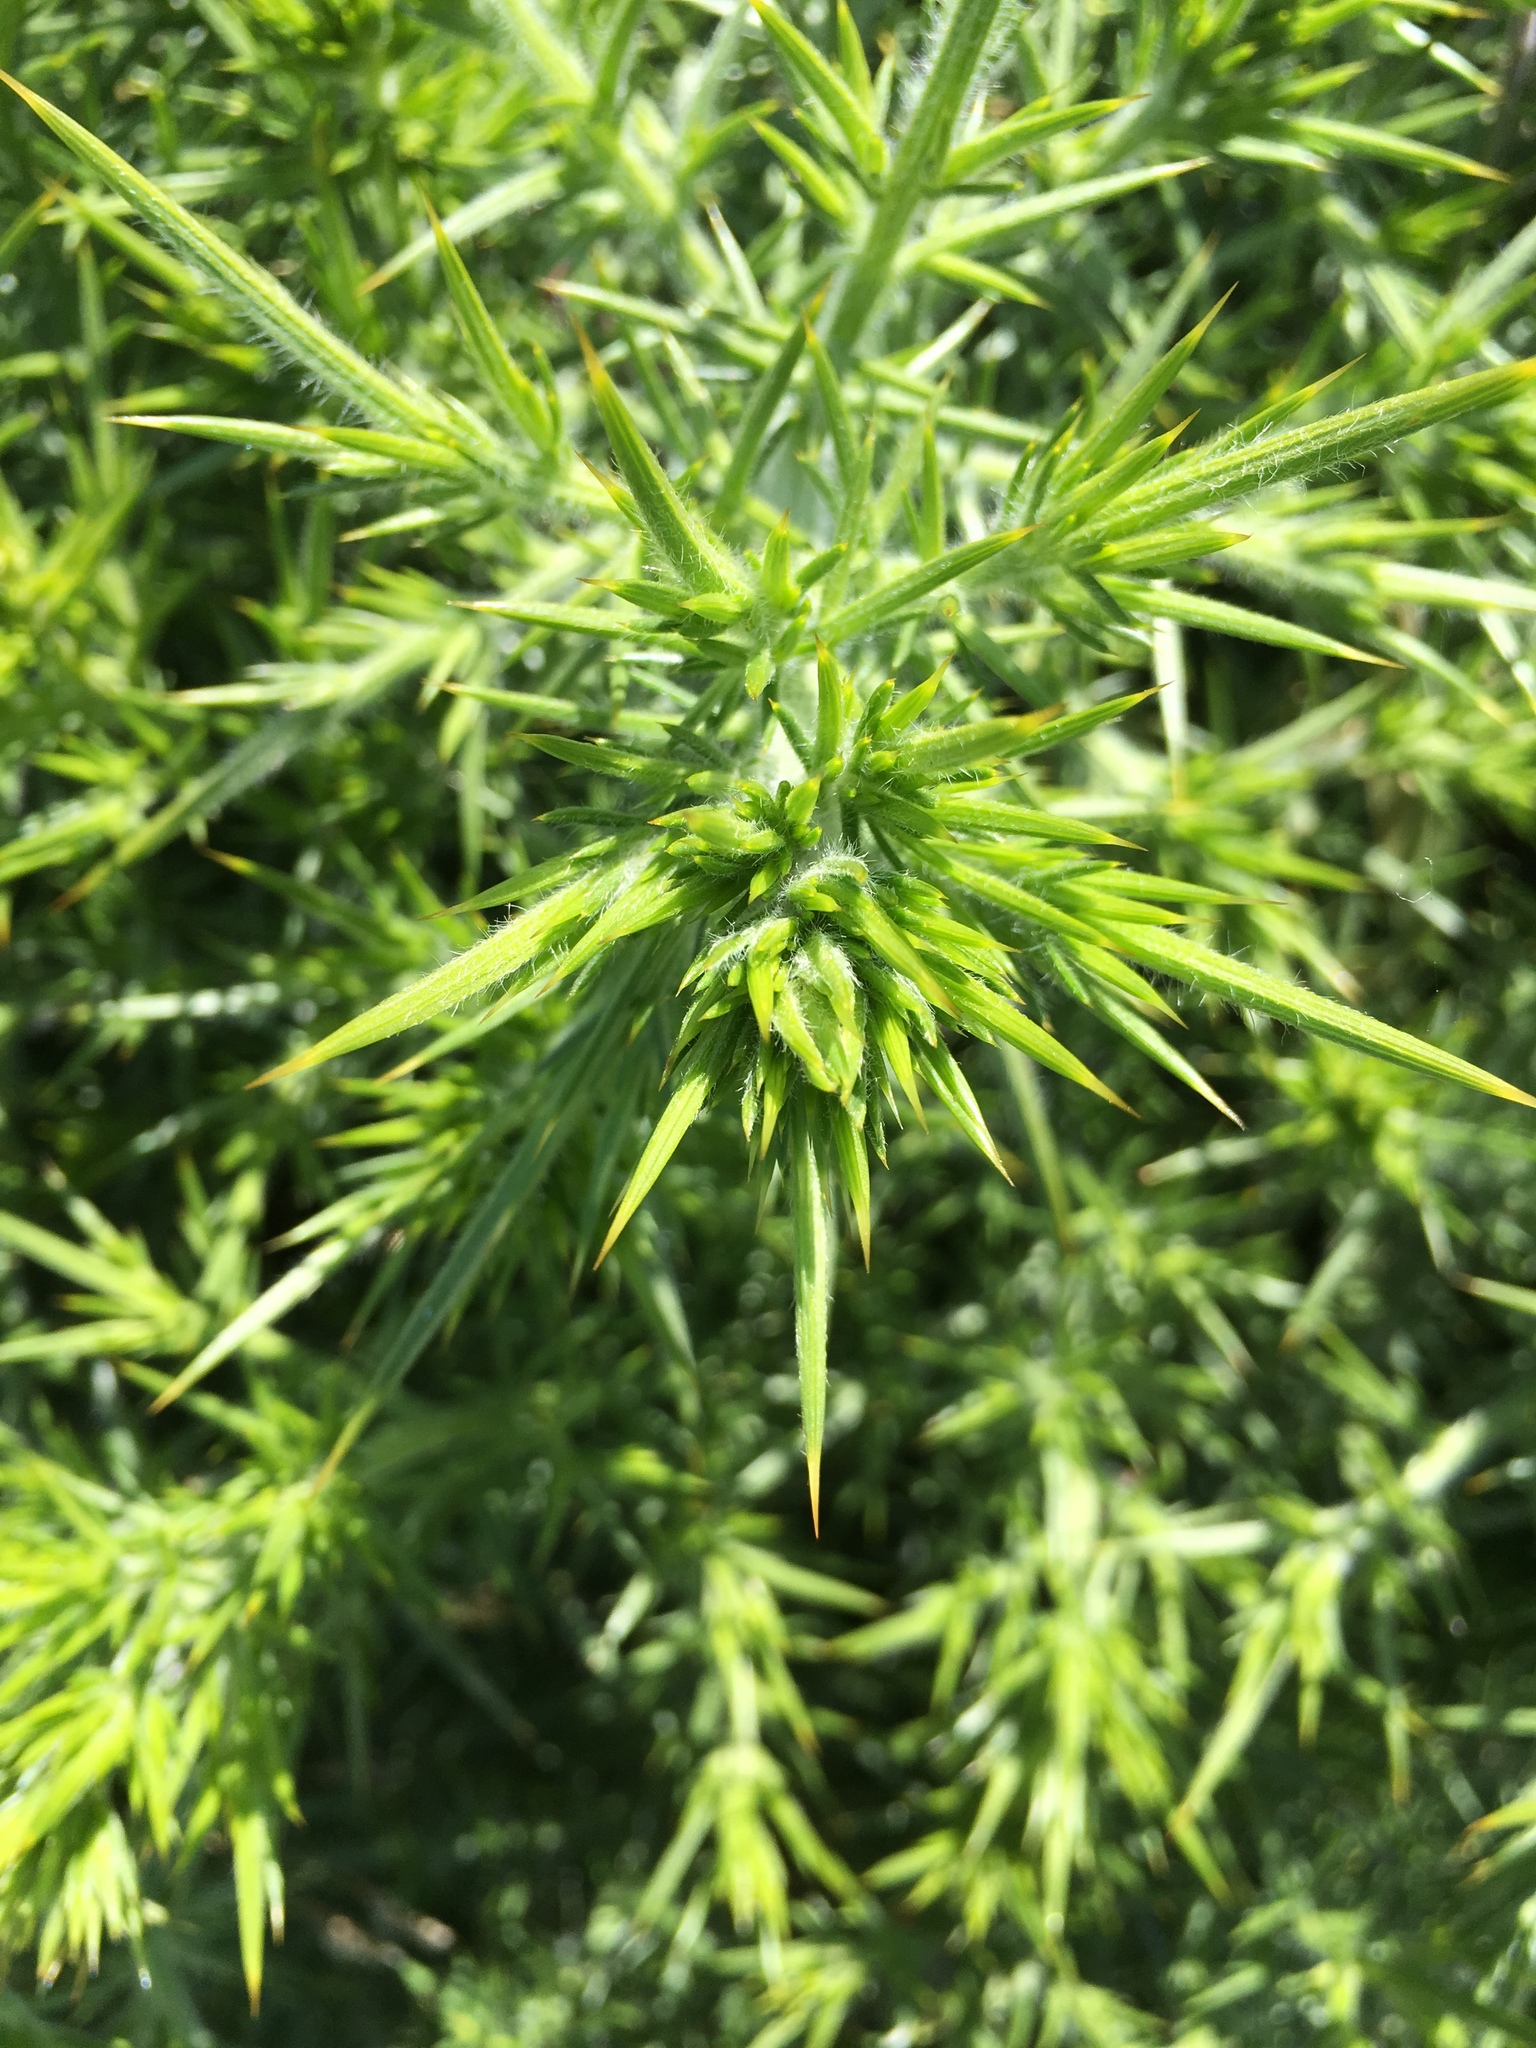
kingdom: Plantae
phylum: Tracheophyta
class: Magnoliopsida
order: Fabales
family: Fabaceae
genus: Ulex
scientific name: Ulex europaeus
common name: Common gorse
